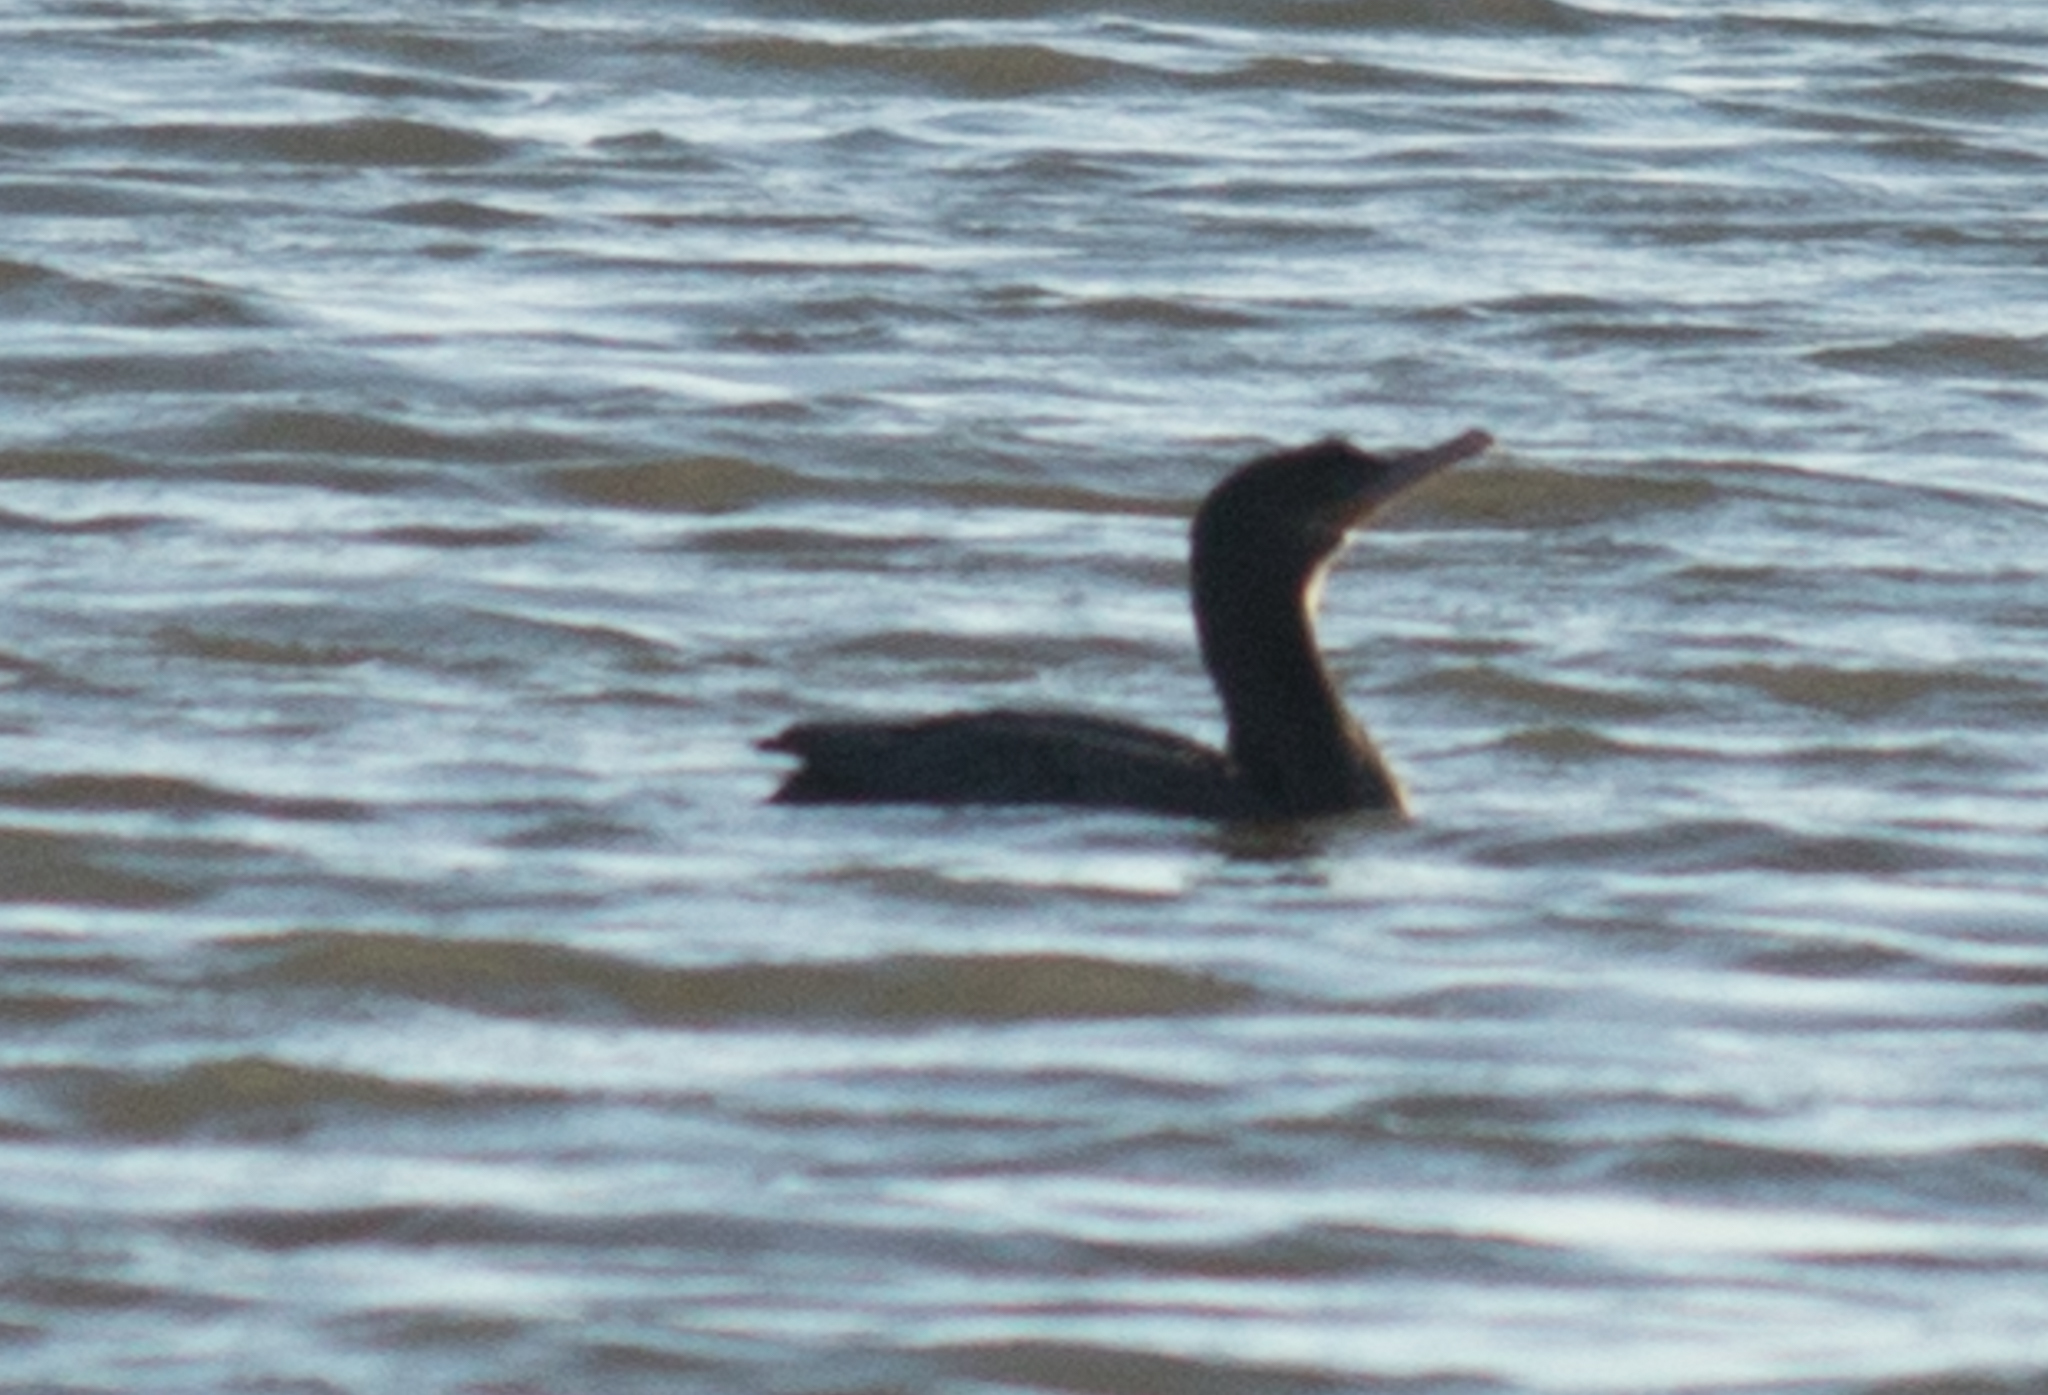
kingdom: Animalia
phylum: Chordata
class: Aves
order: Suliformes
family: Phalacrocoracidae
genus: Phalacrocorax
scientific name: Phalacrocorax brasilianus
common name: Neotropic cormorant
